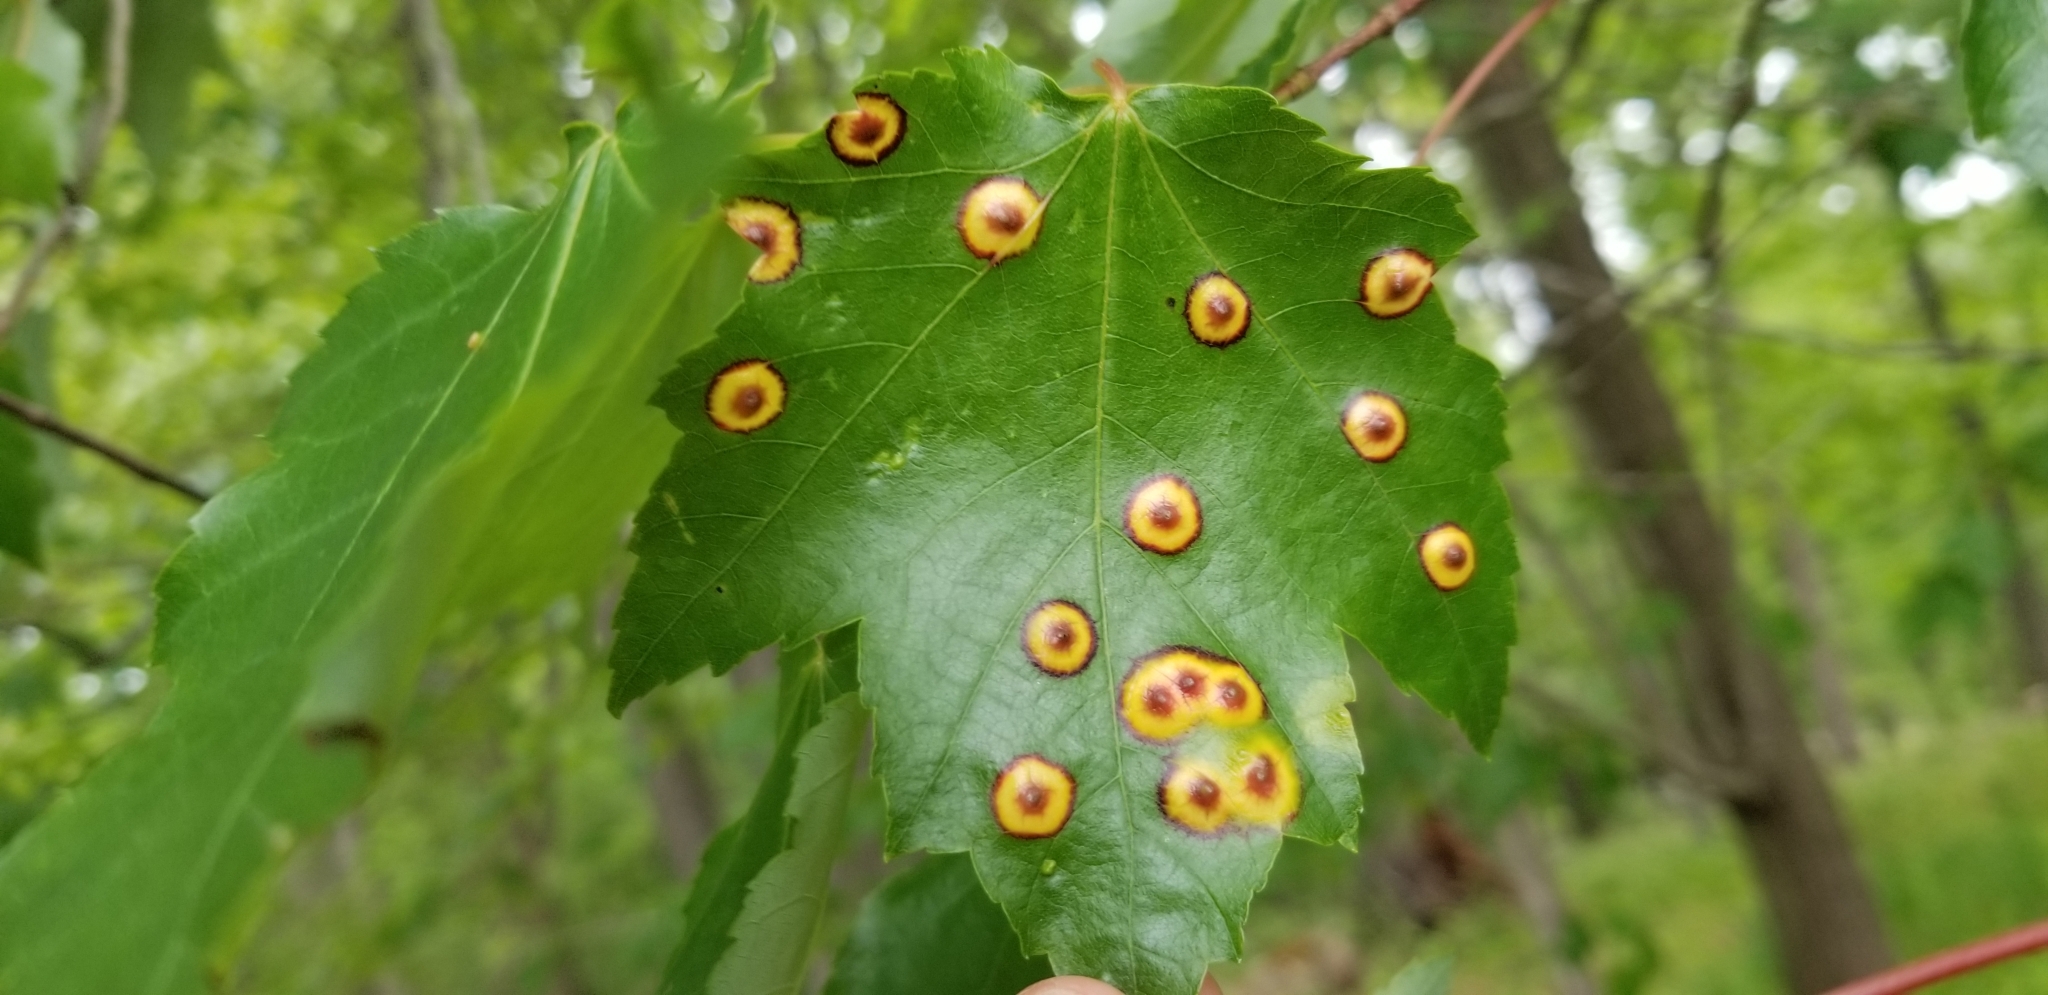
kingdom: Animalia
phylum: Arthropoda
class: Insecta
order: Diptera
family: Cecidomyiidae
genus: Acericecis
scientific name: Acericecis ocellaris
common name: Ocellate gall midge
